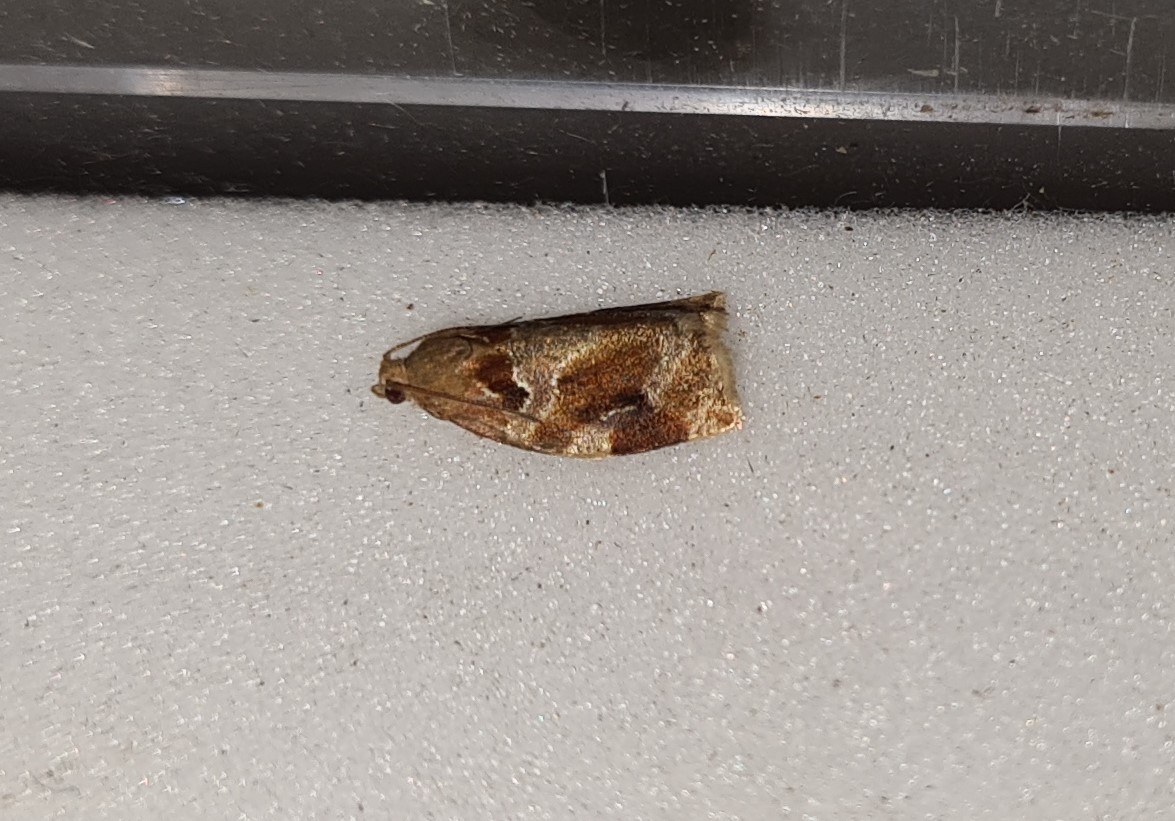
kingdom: Animalia
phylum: Arthropoda
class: Insecta
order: Lepidoptera
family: Tortricidae
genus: Archips
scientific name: Archips xylosteana
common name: Variegated golden tortrix
